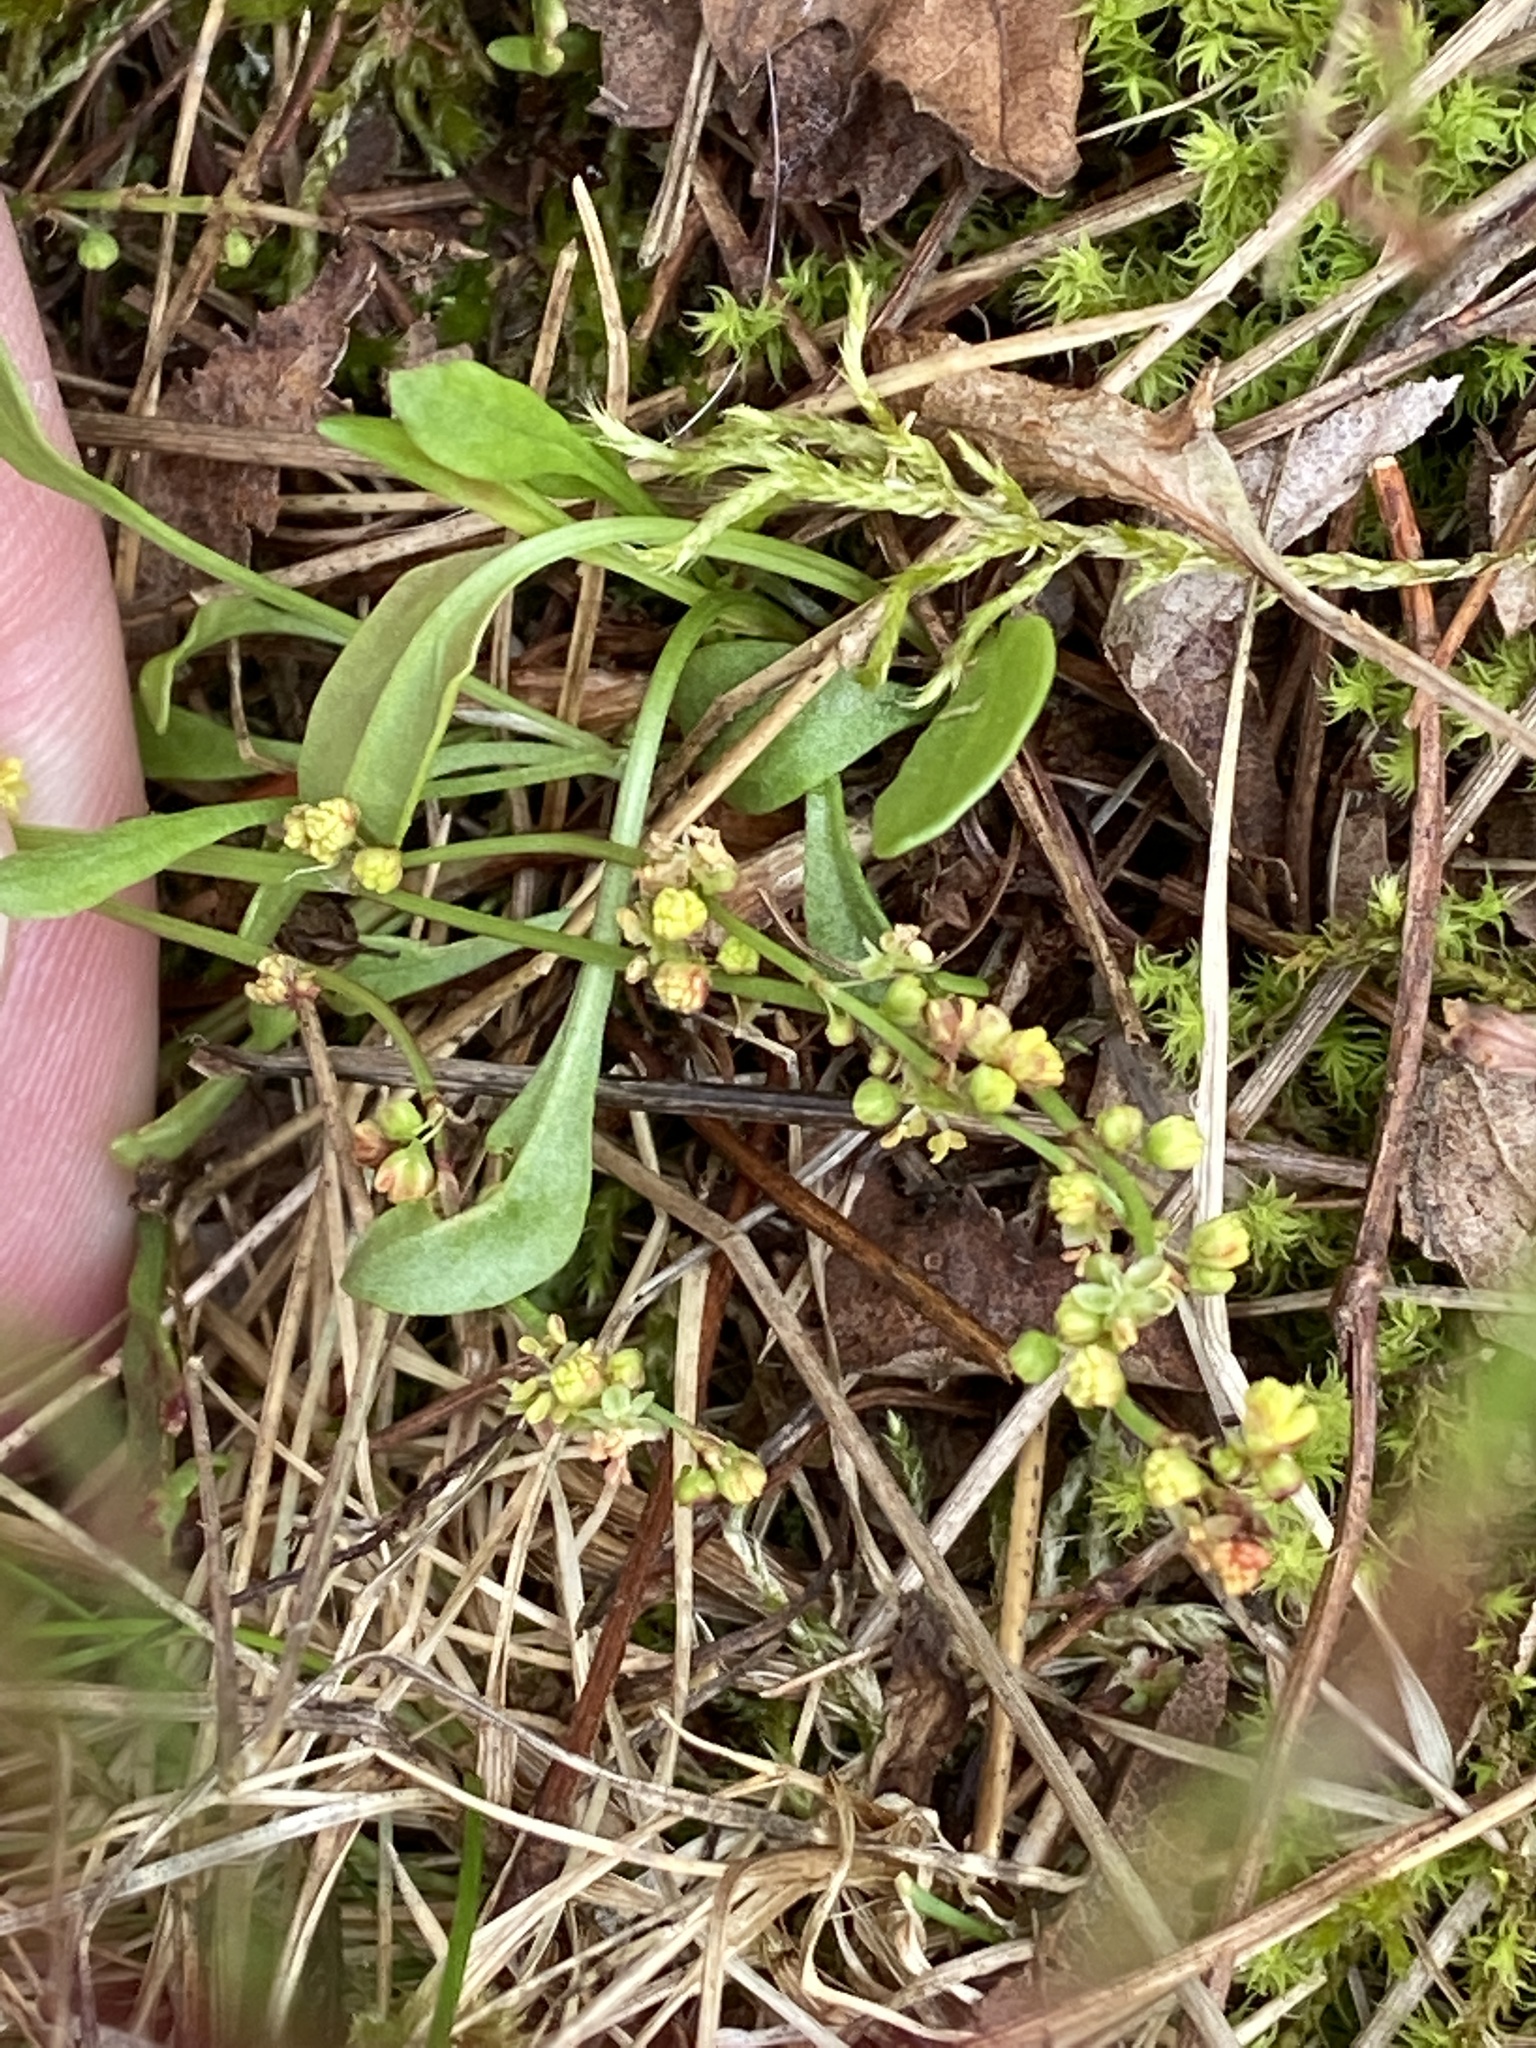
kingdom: Plantae
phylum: Tracheophyta
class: Magnoliopsida
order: Caryophyllales
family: Polygonaceae
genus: Rumex
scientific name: Rumex acetosella
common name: Common sheep sorrel
